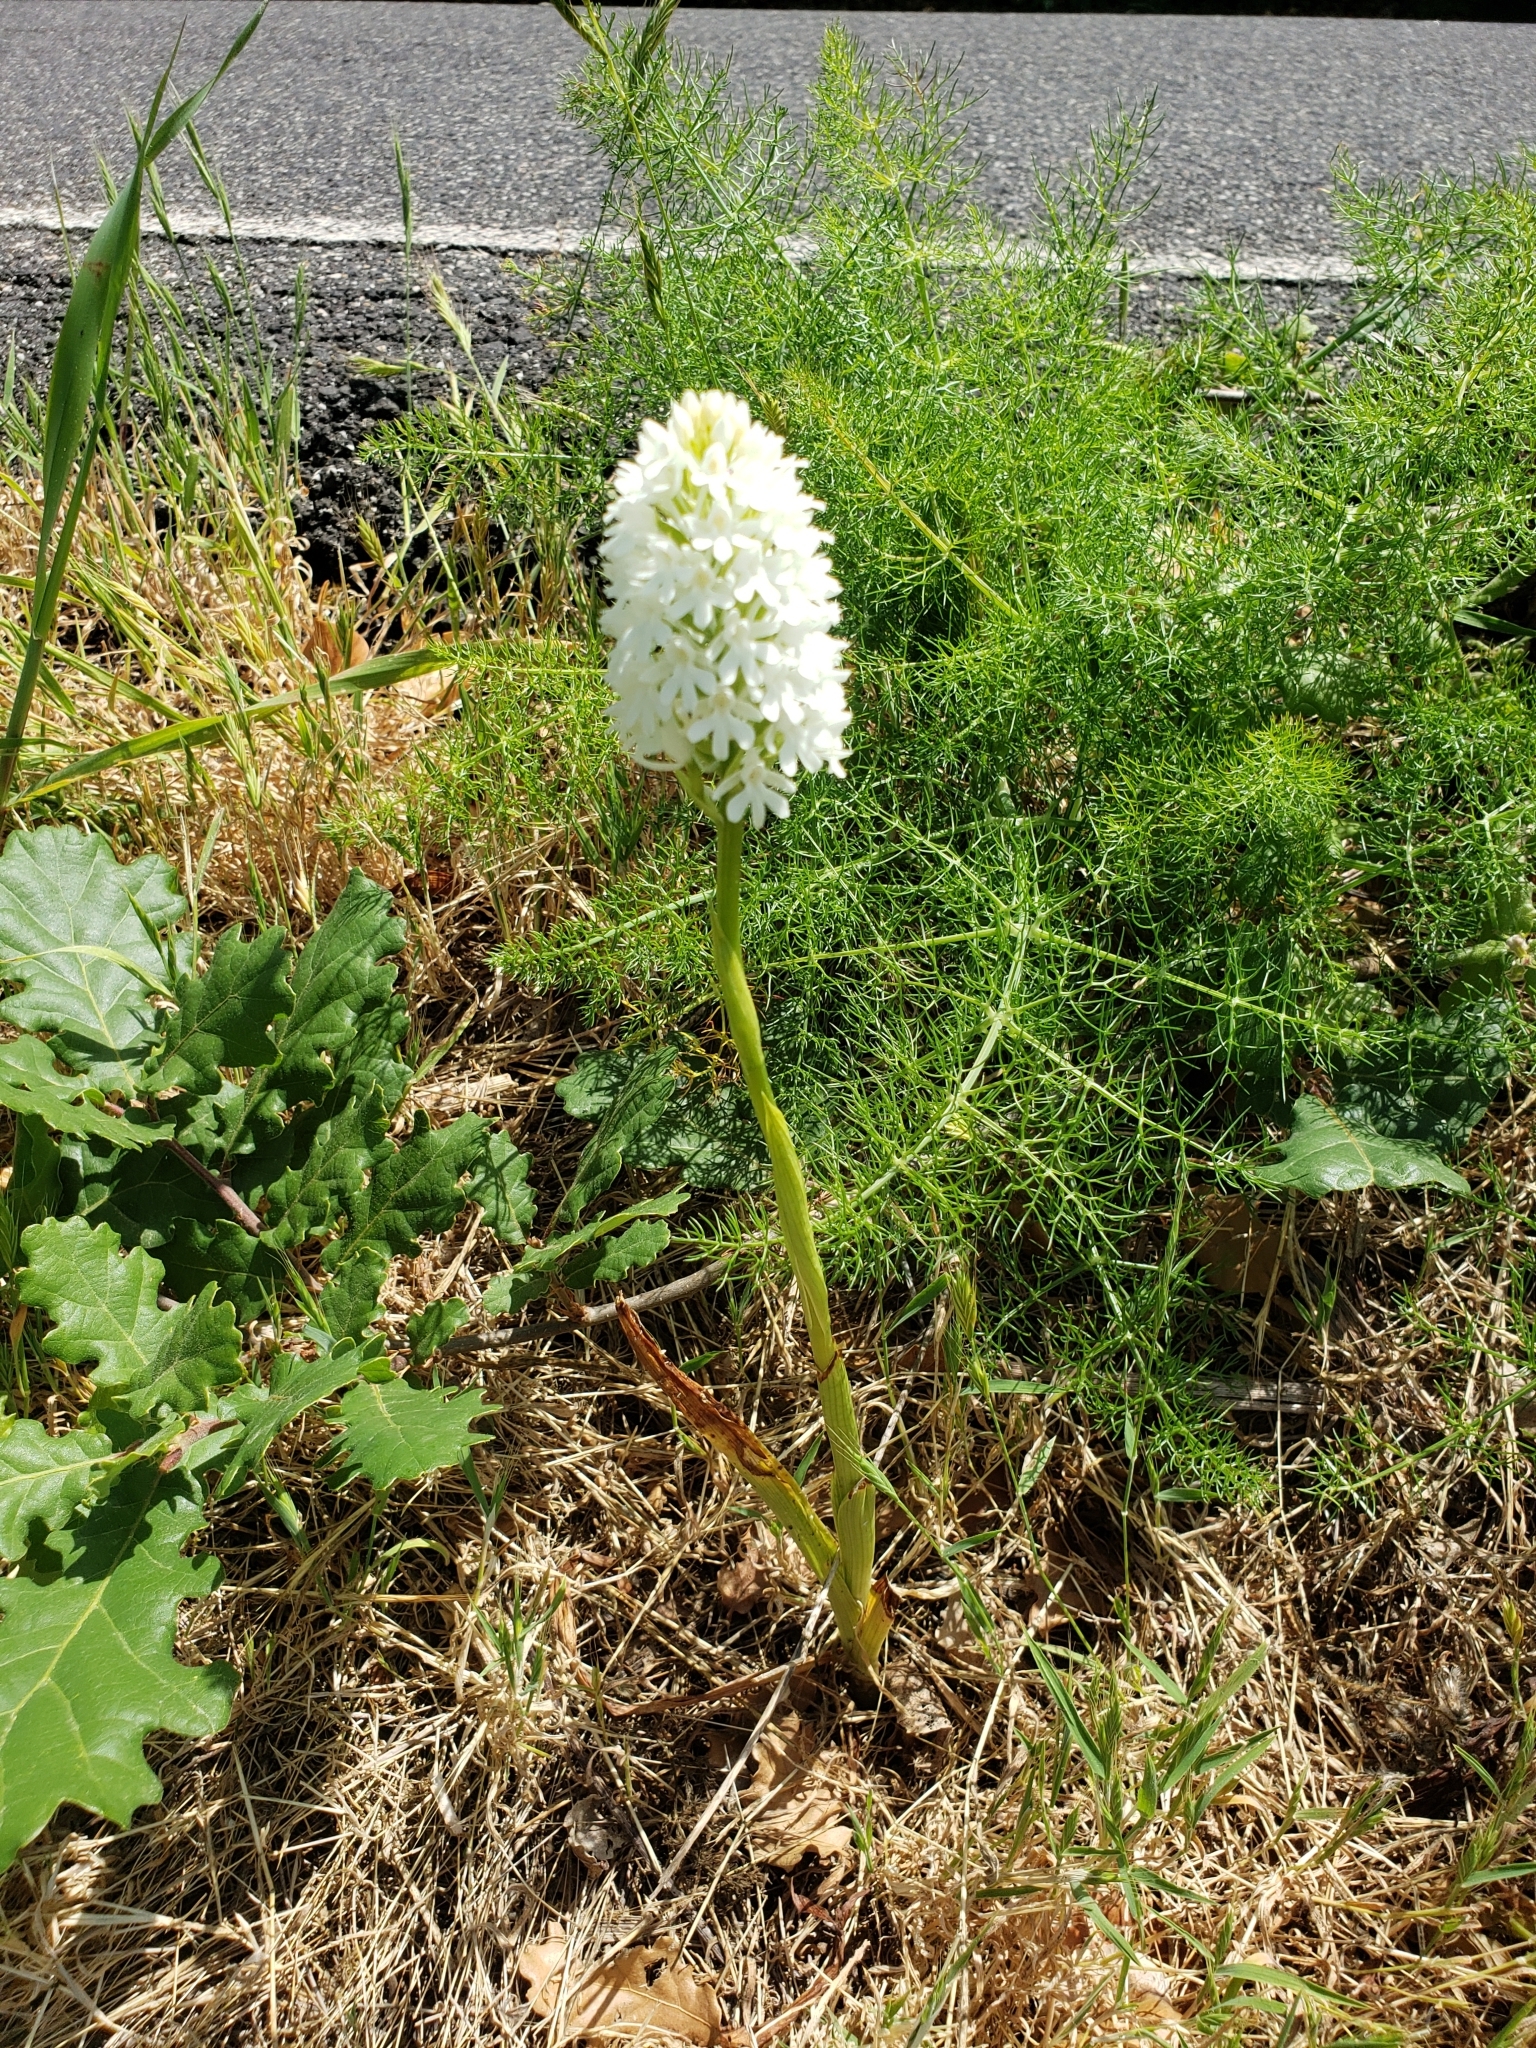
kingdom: Plantae
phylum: Tracheophyta
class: Liliopsida
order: Asparagales
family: Orchidaceae
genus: Anacamptis
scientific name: Anacamptis pyramidalis
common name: Pyramidal orchid
